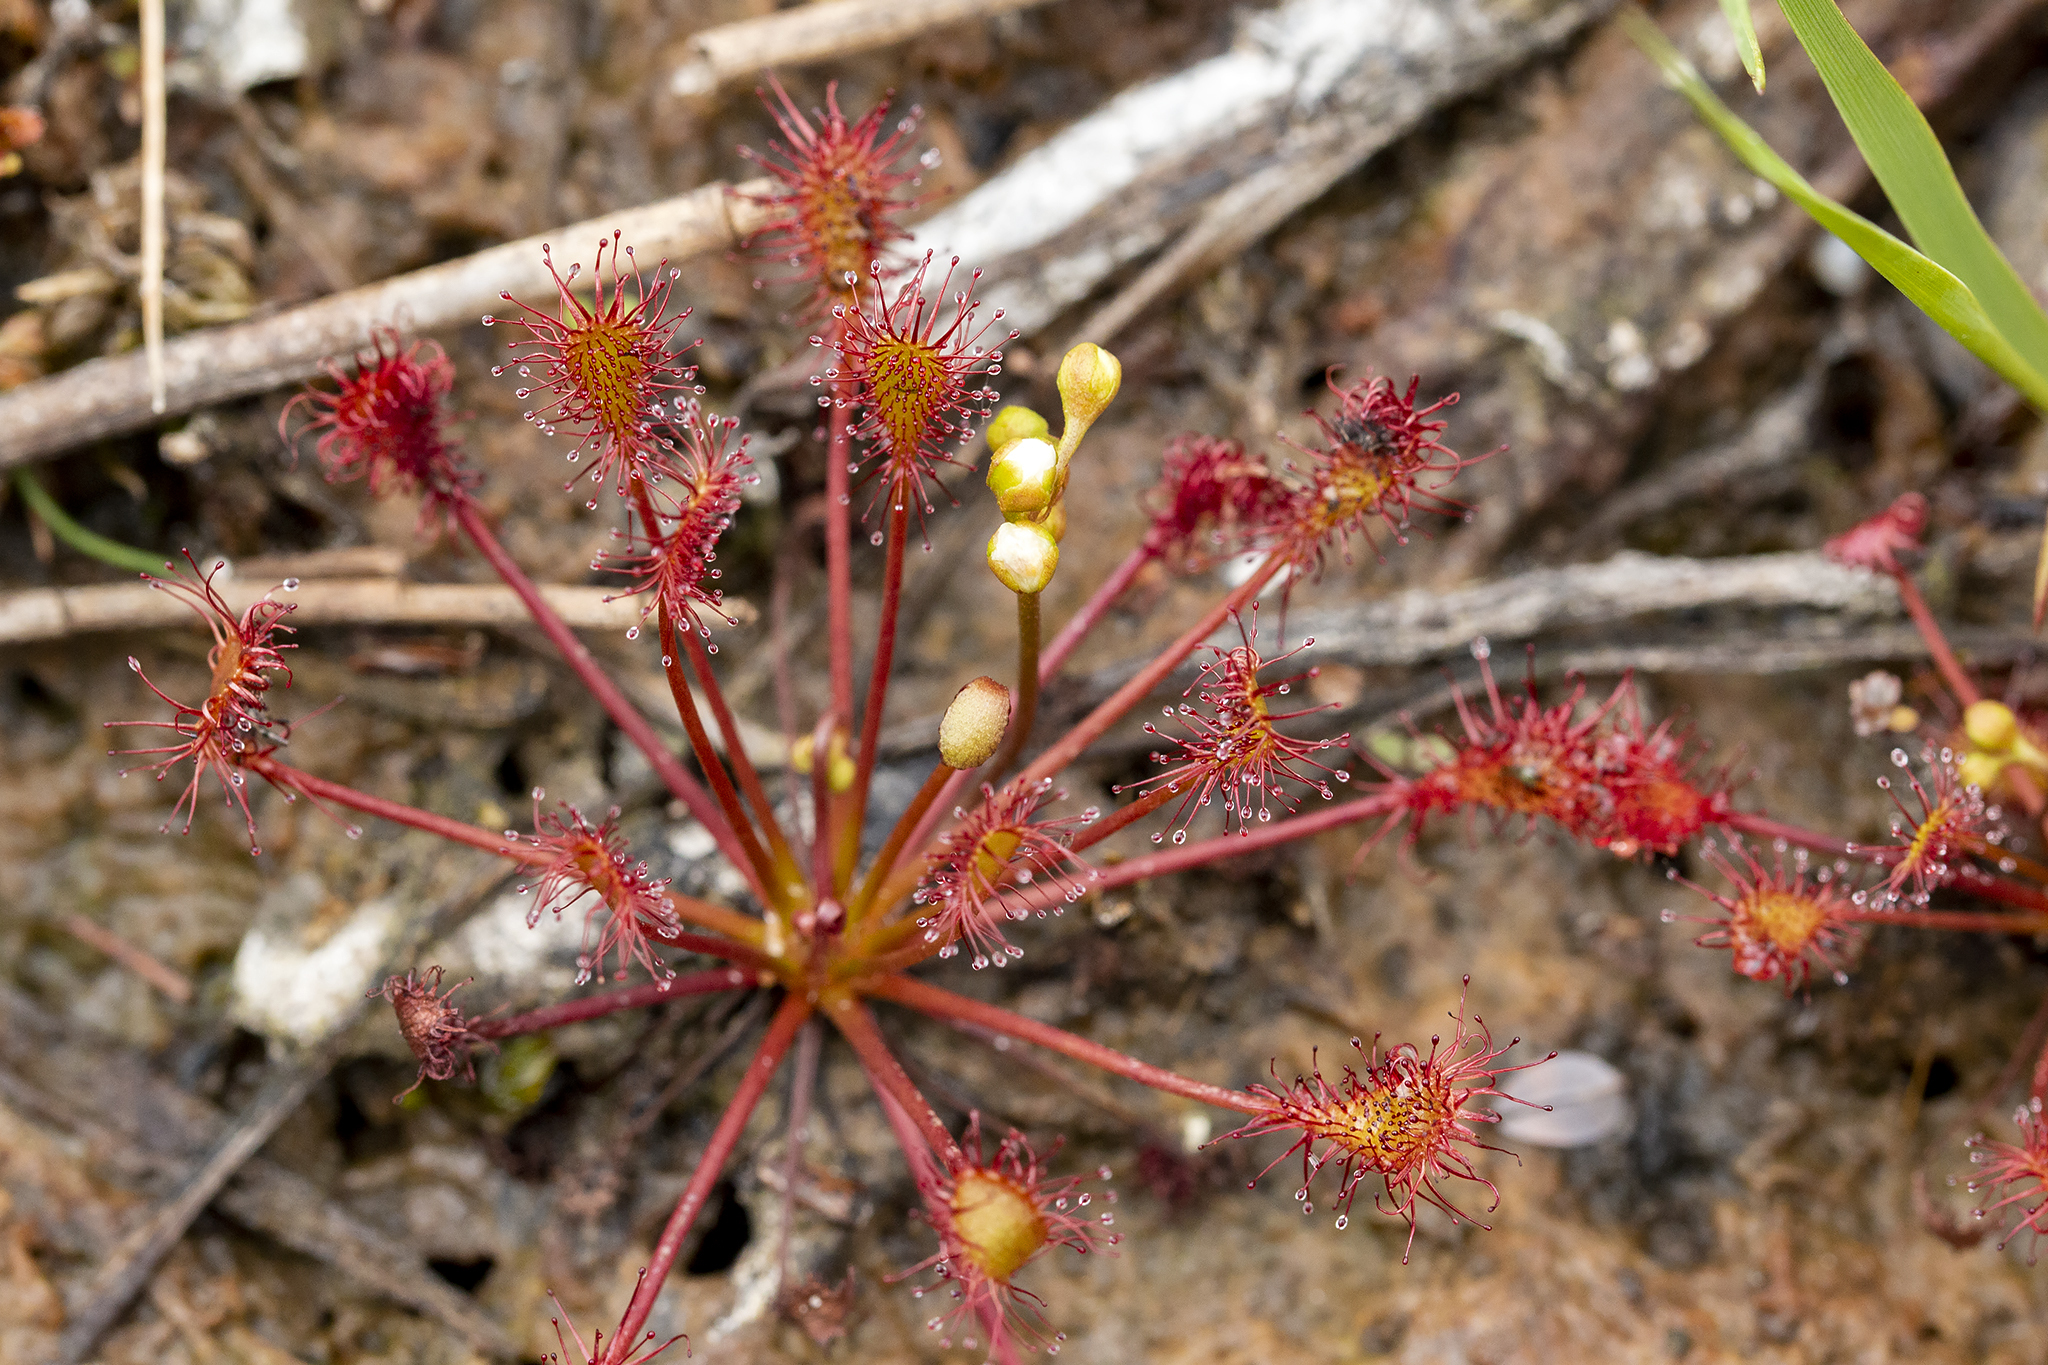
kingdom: Plantae
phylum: Tracheophyta
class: Magnoliopsida
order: Caryophyllales
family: Droseraceae
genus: Drosera
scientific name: Drosera intermedia
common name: Oblong-leaved sundew
